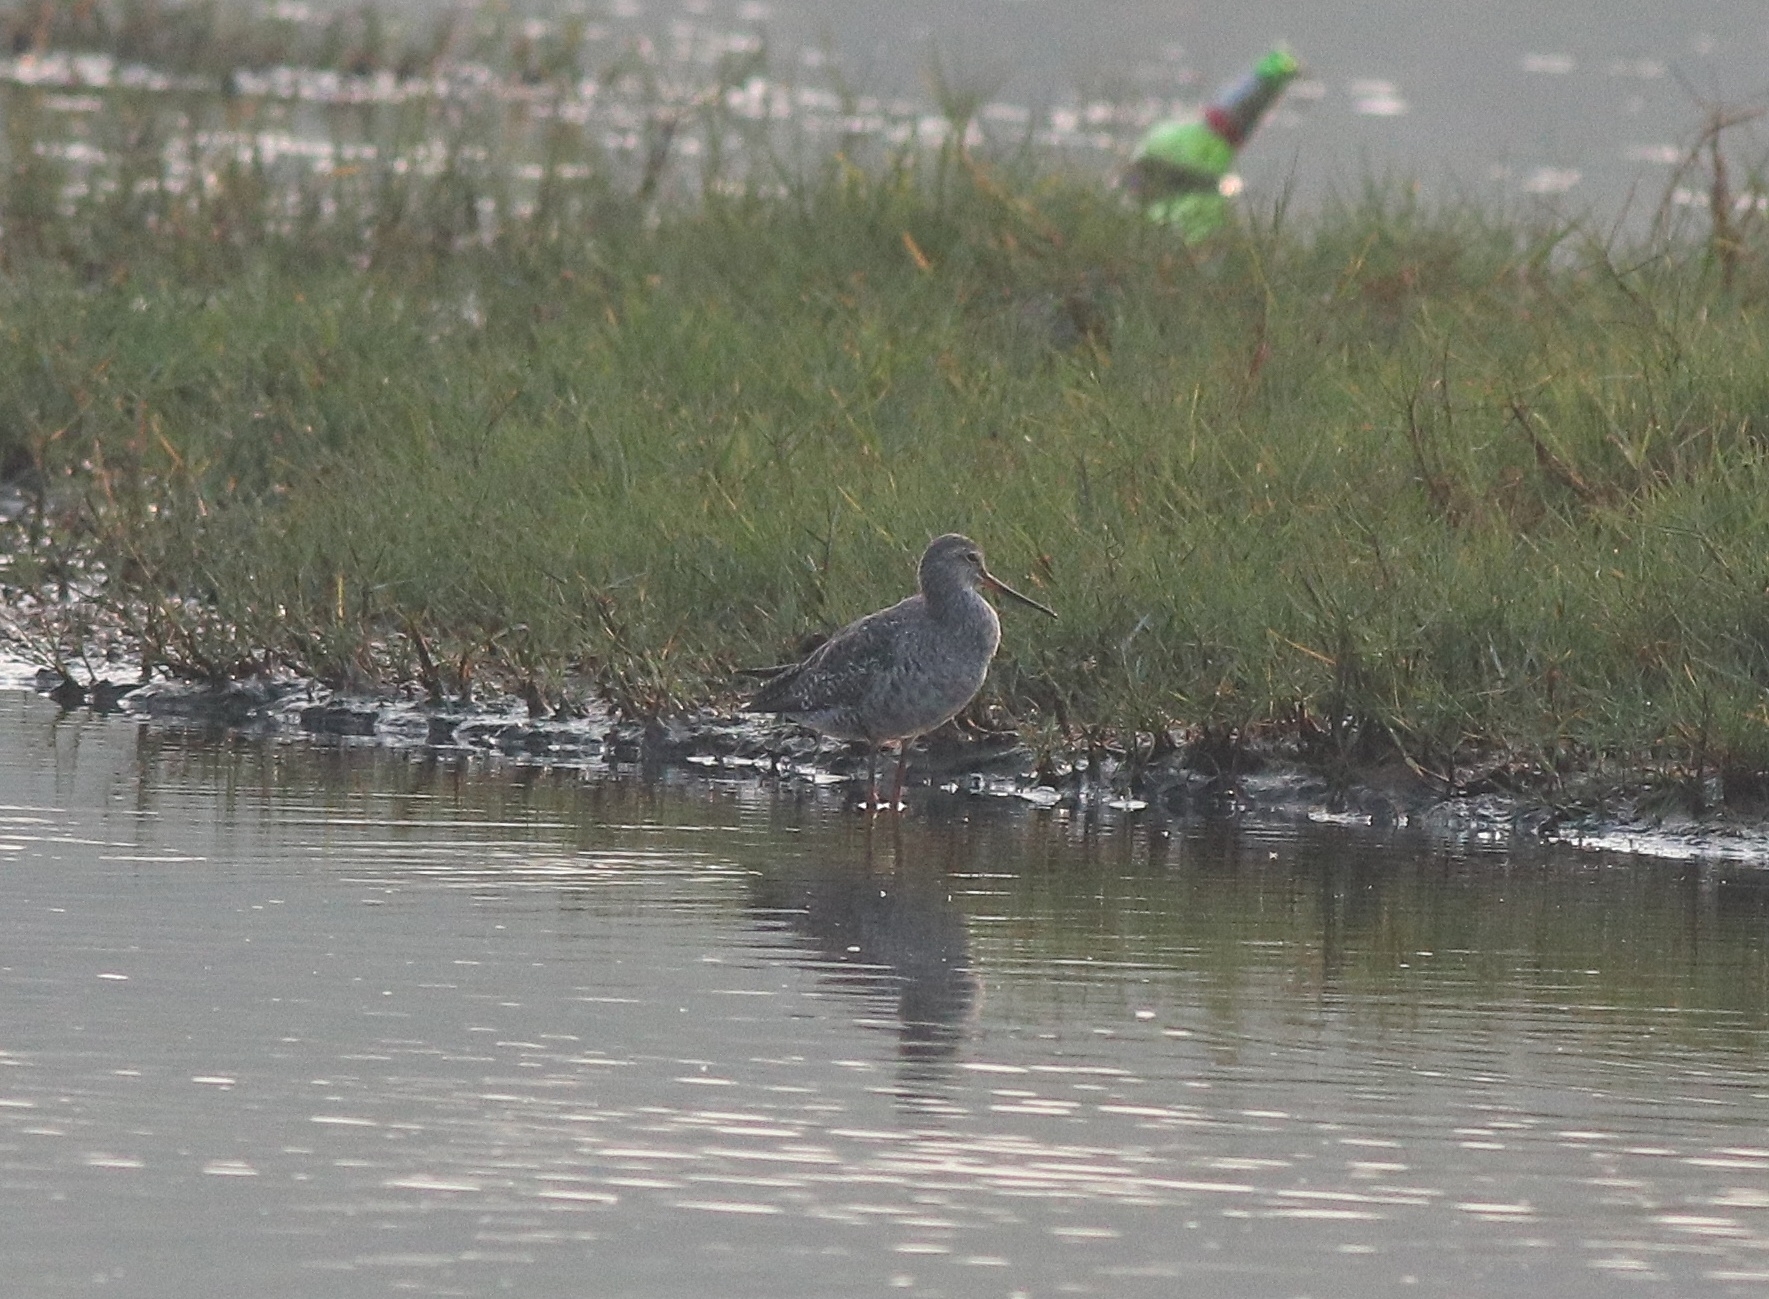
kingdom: Animalia
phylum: Chordata
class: Aves
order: Charadriiformes
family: Scolopacidae
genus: Tringa
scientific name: Tringa erythropus
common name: Spotted redshank
